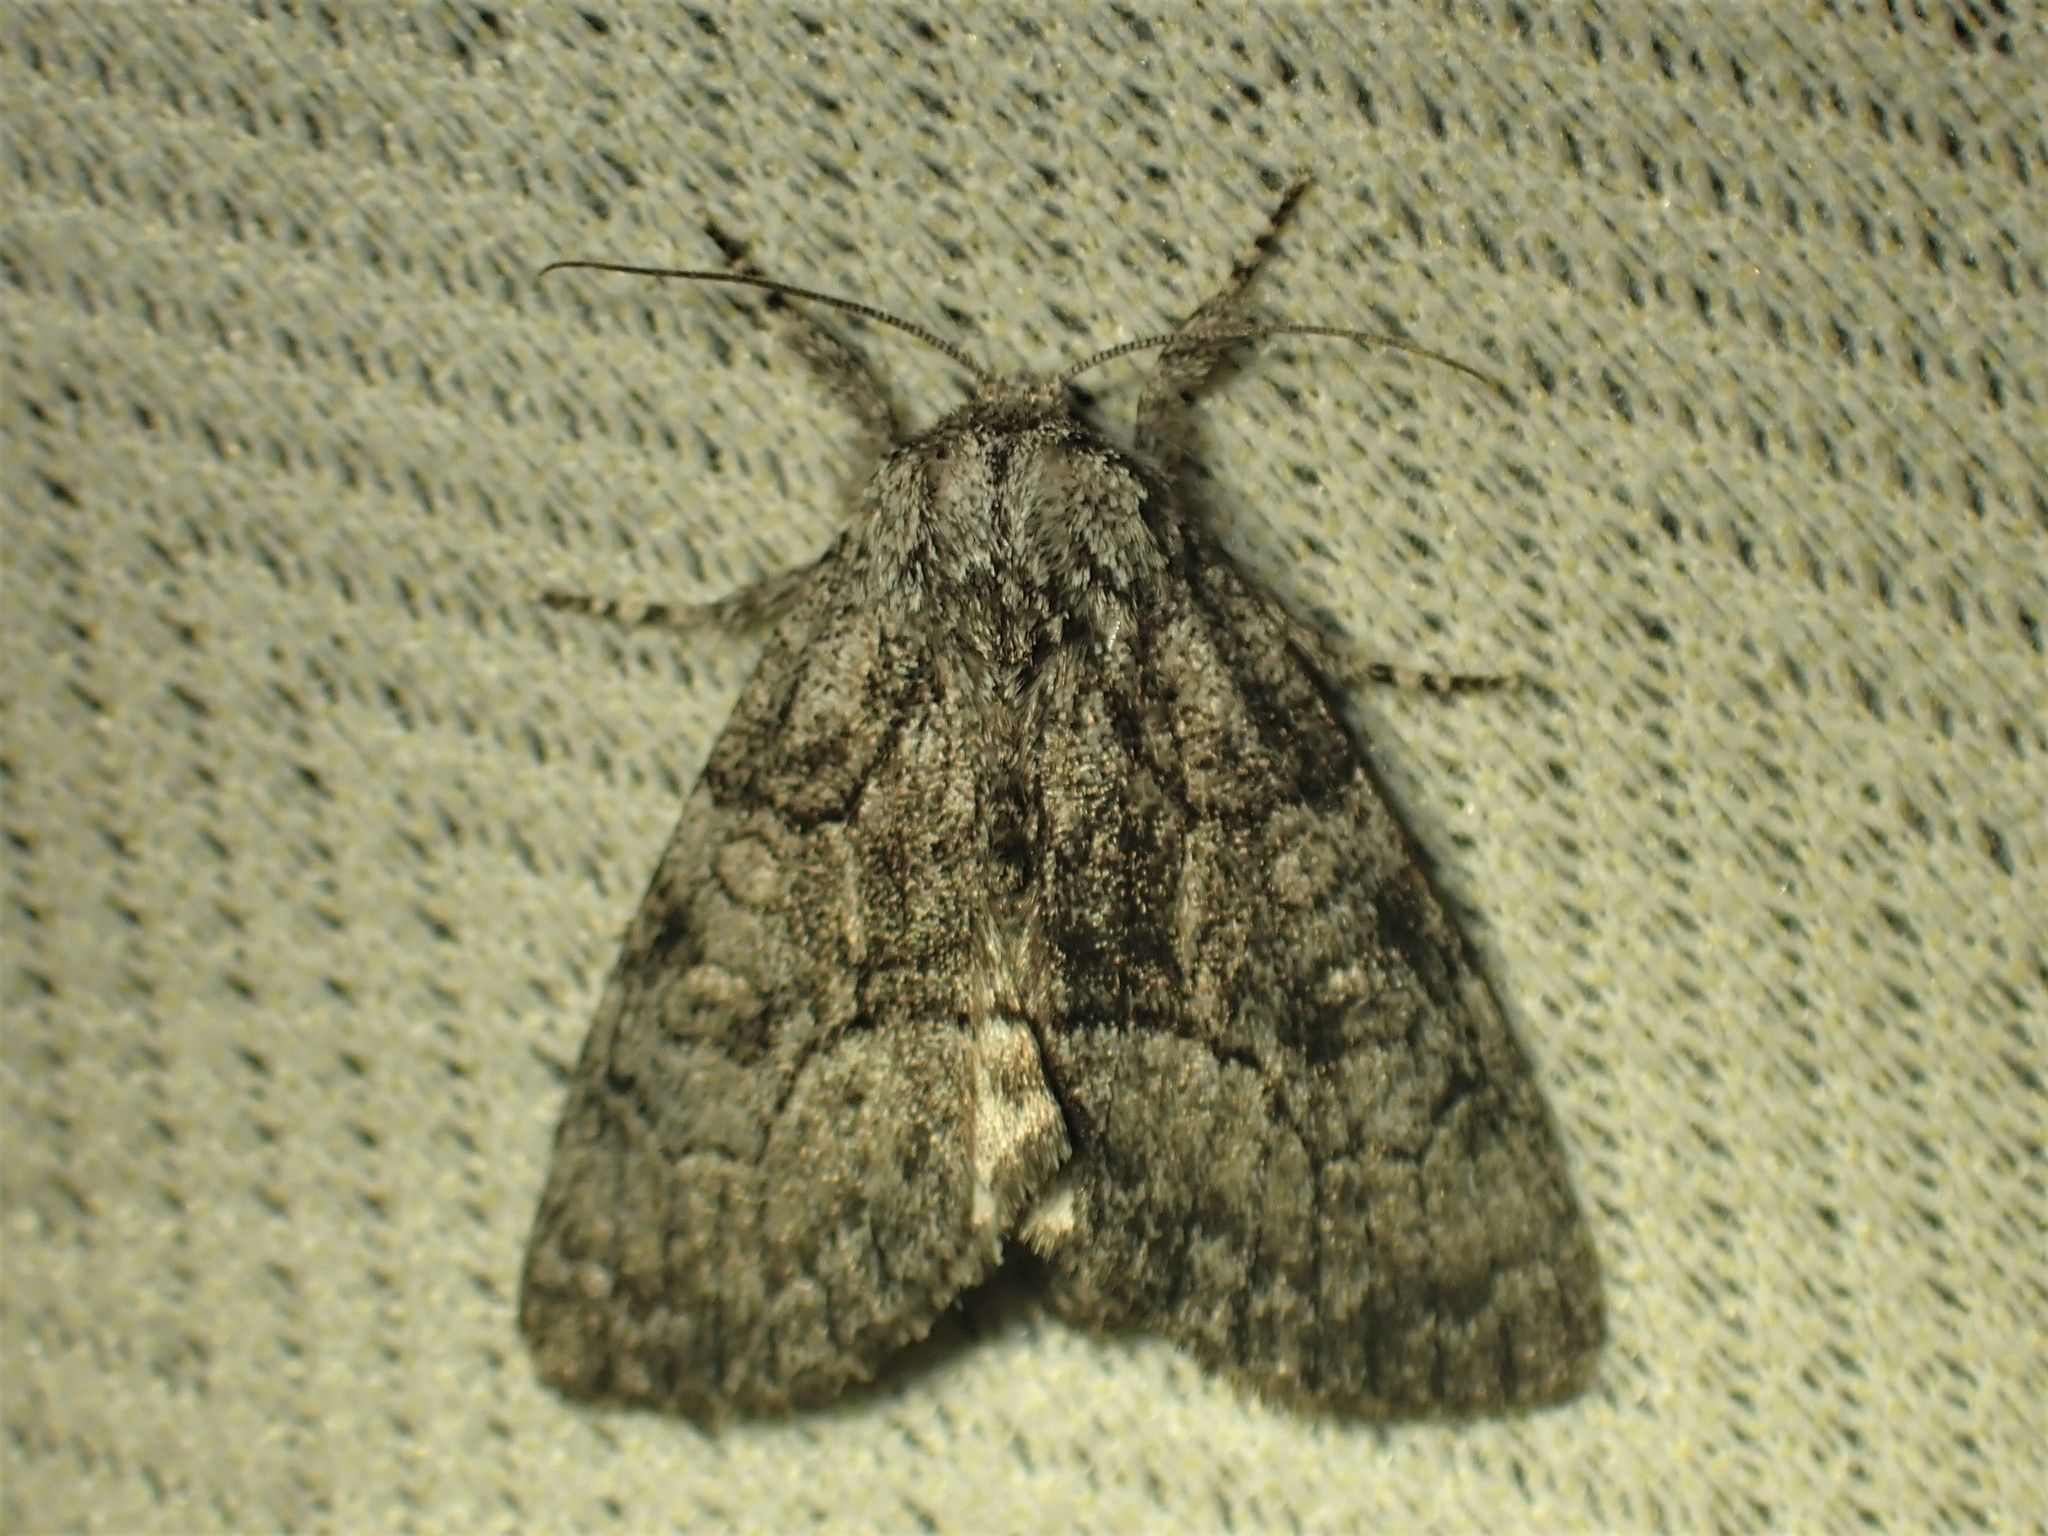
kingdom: Animalia
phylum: Arthropoda
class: Insecta
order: Lepidoptera
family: Noctuidae
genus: Raphia
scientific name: Raphia frater
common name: Brother
